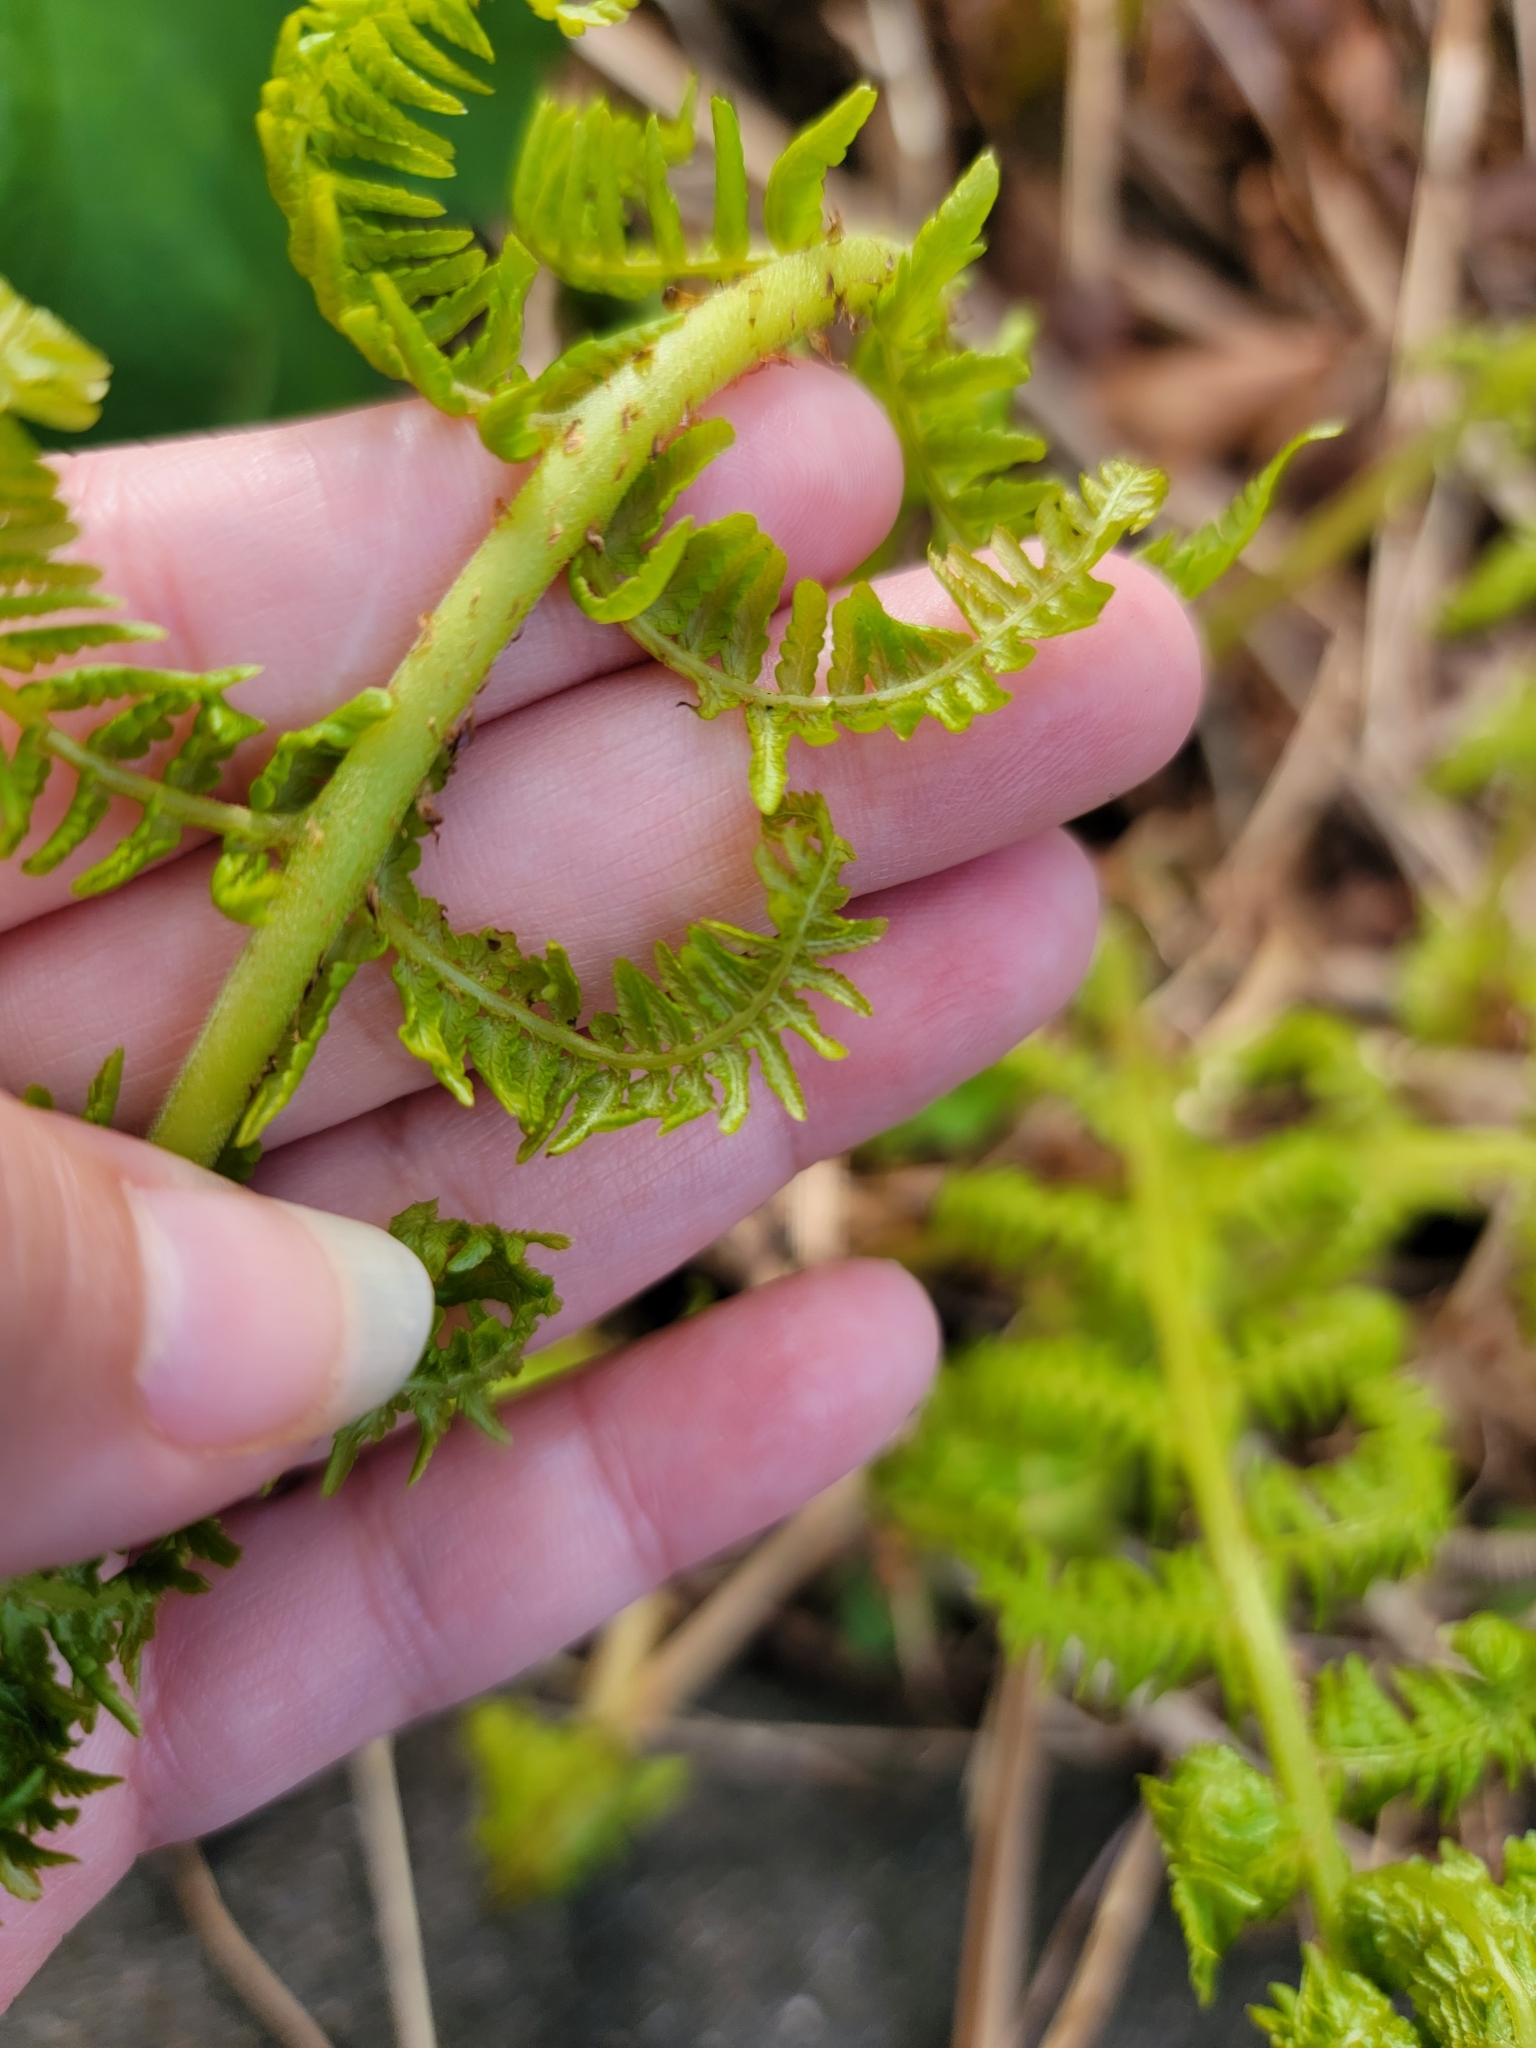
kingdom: Plantae
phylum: Tracheophyta
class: Polypodiopsida
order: Polypodiales
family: Athyriaceae
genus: Athyrium
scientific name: Athyrium cyclosorum
